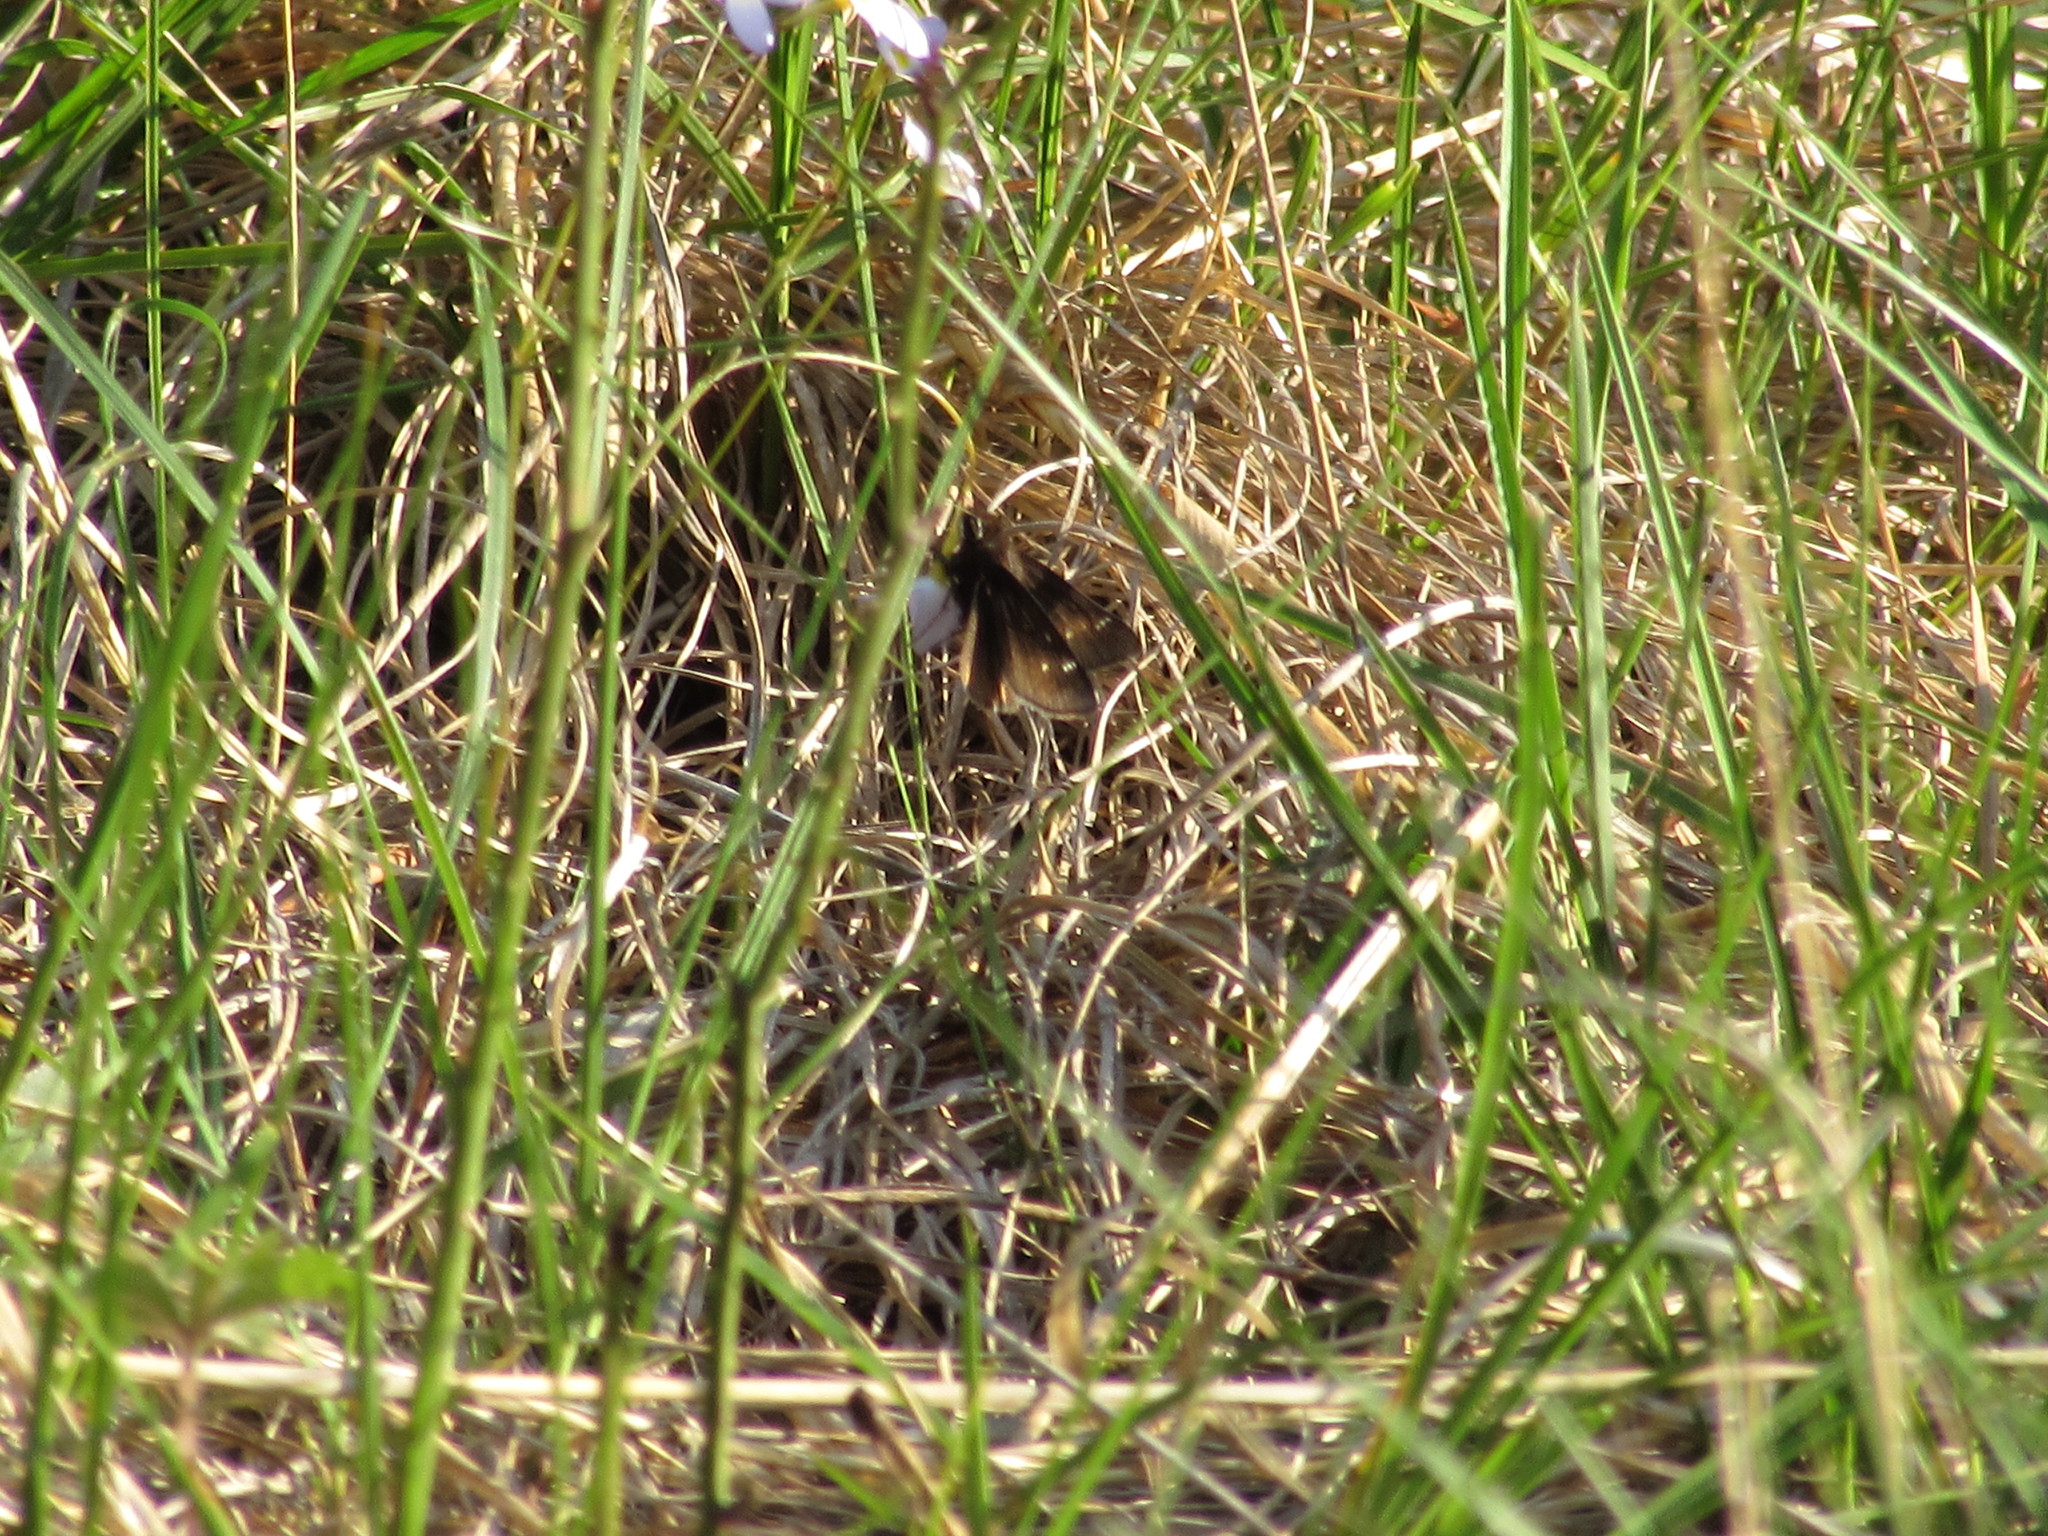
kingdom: Animalia
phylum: Arthropoda
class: Insecta
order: Lepidoptera
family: Hesperiidae
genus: Atrytonopsis
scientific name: Atrytonopsis hianna
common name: Dusted skipper
